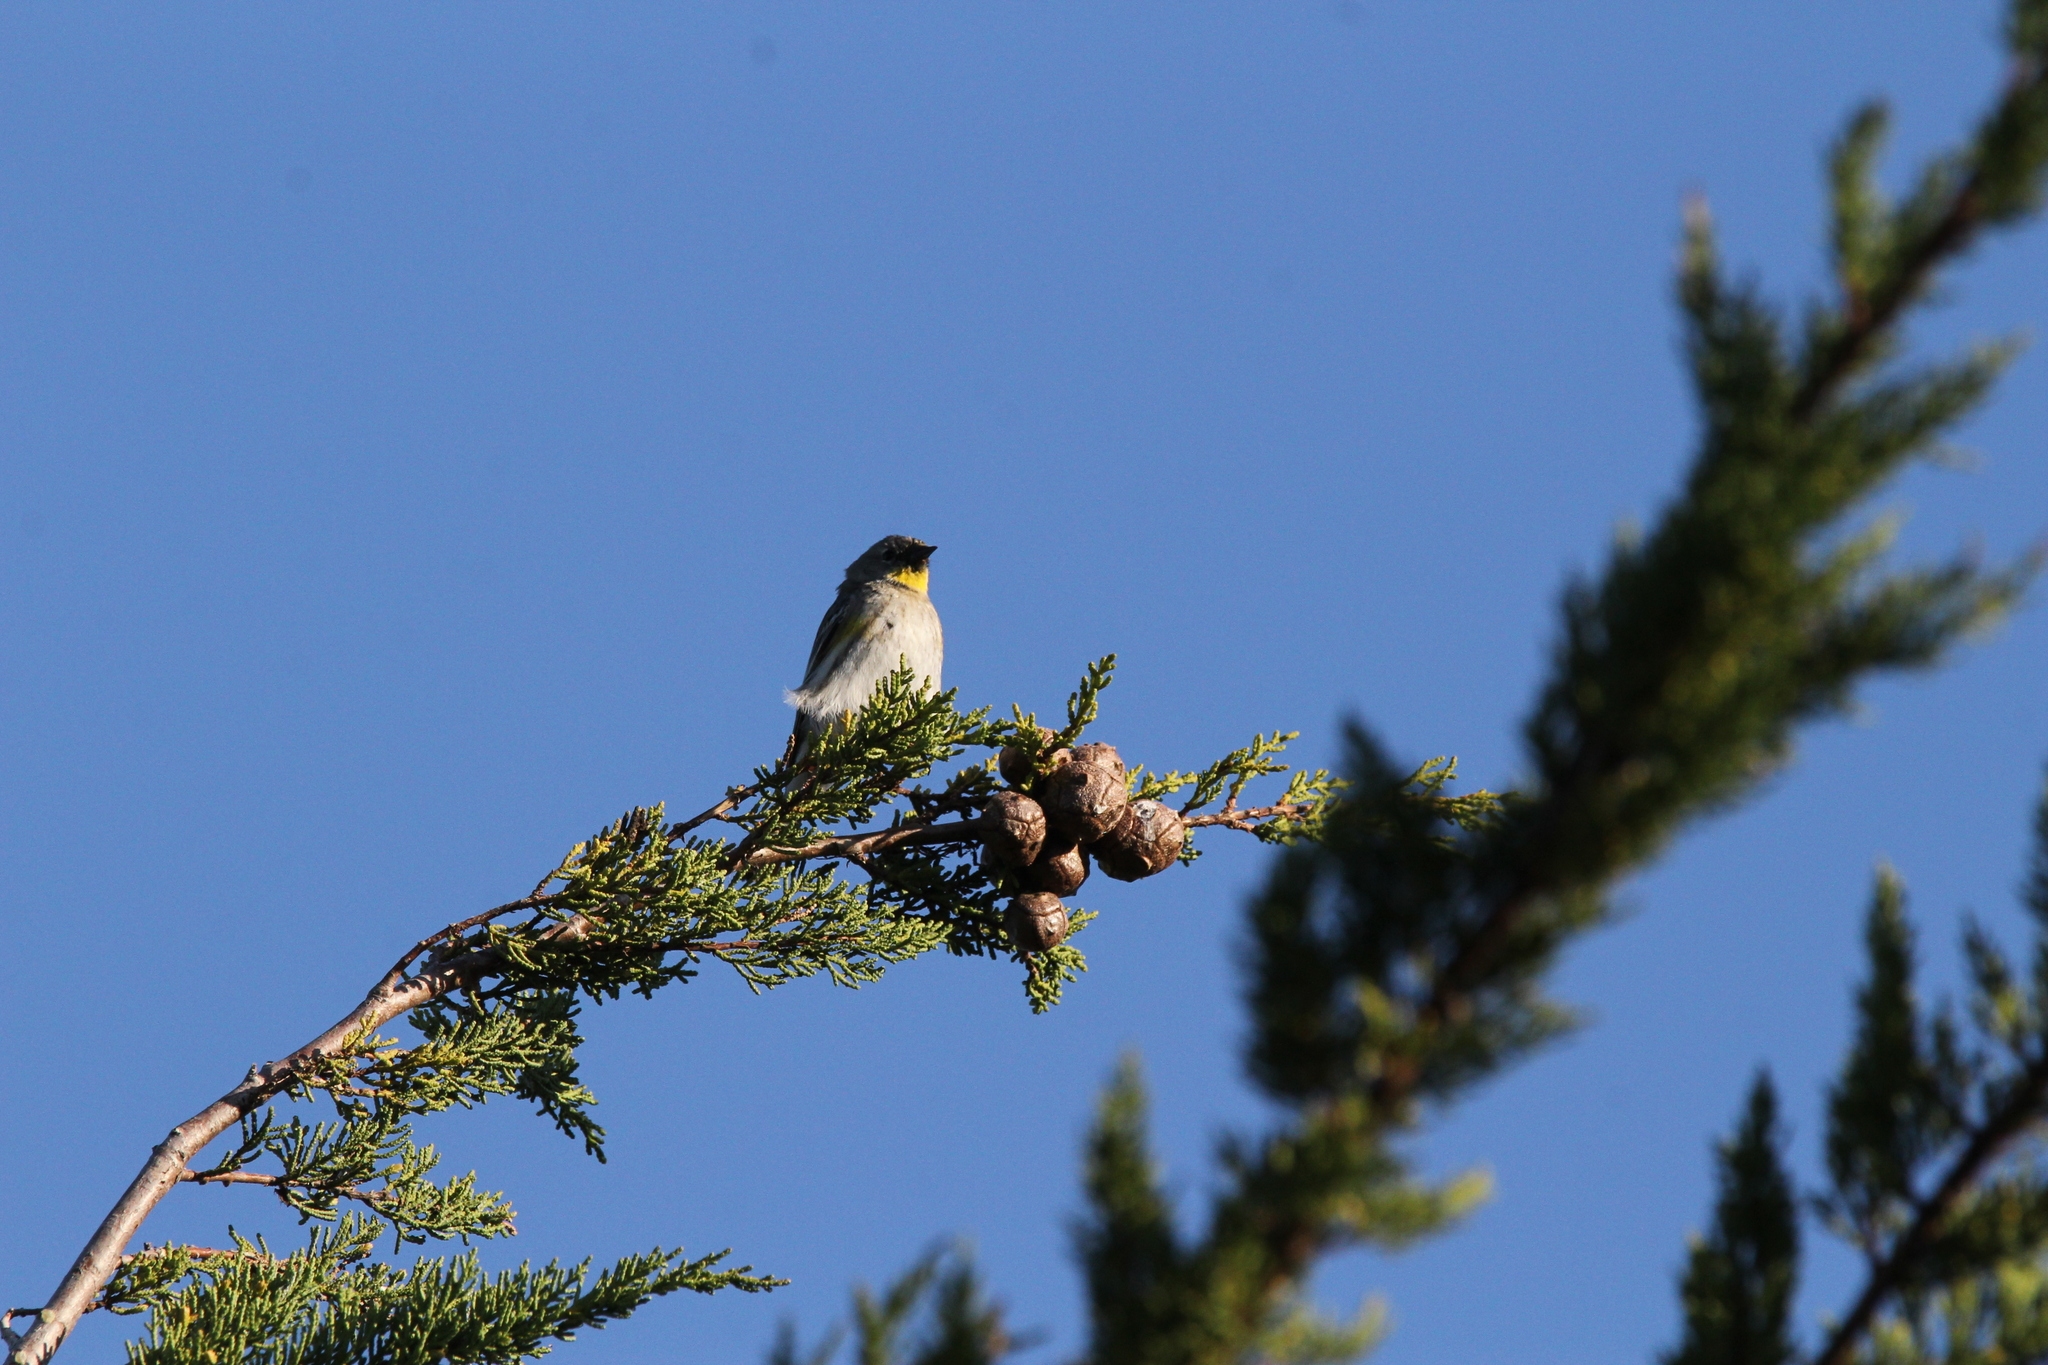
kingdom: Animalia
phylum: Chordata
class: Aves
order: Passeriformes
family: Parulidae
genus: Setophaga
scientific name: Setophaga coronata
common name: Myrtle warbler
